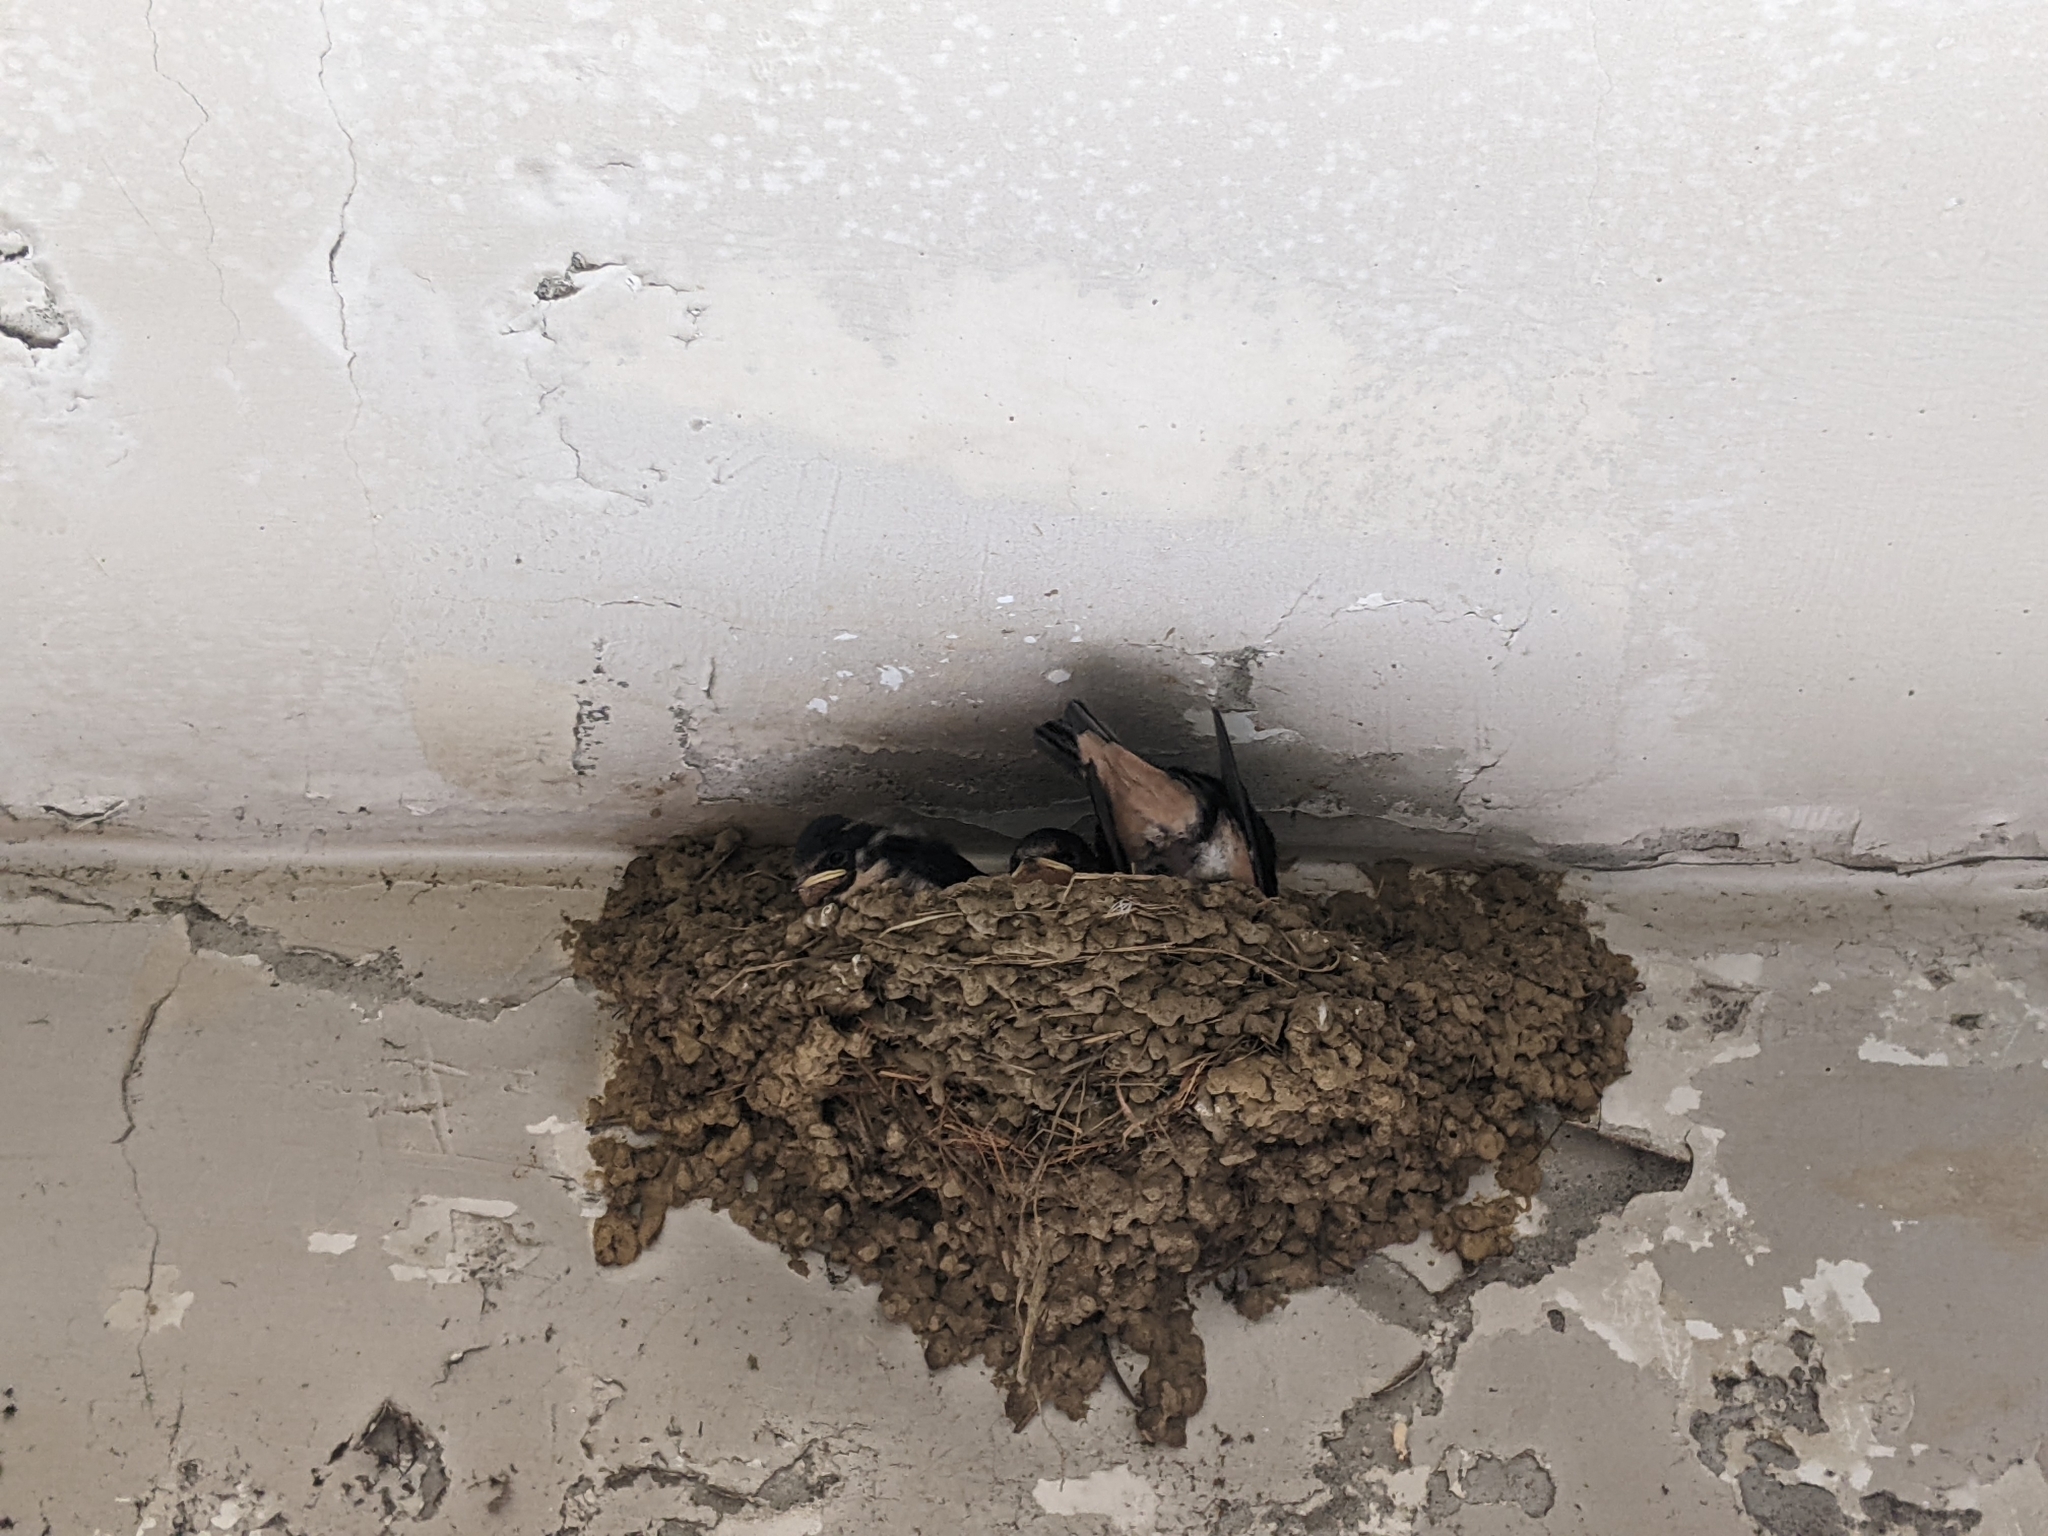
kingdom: Animalia
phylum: Chordata
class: Aves
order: Passeriformes
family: Hirundinidae
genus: Hirundo
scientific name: Hirundo rustica
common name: Barn swallow
